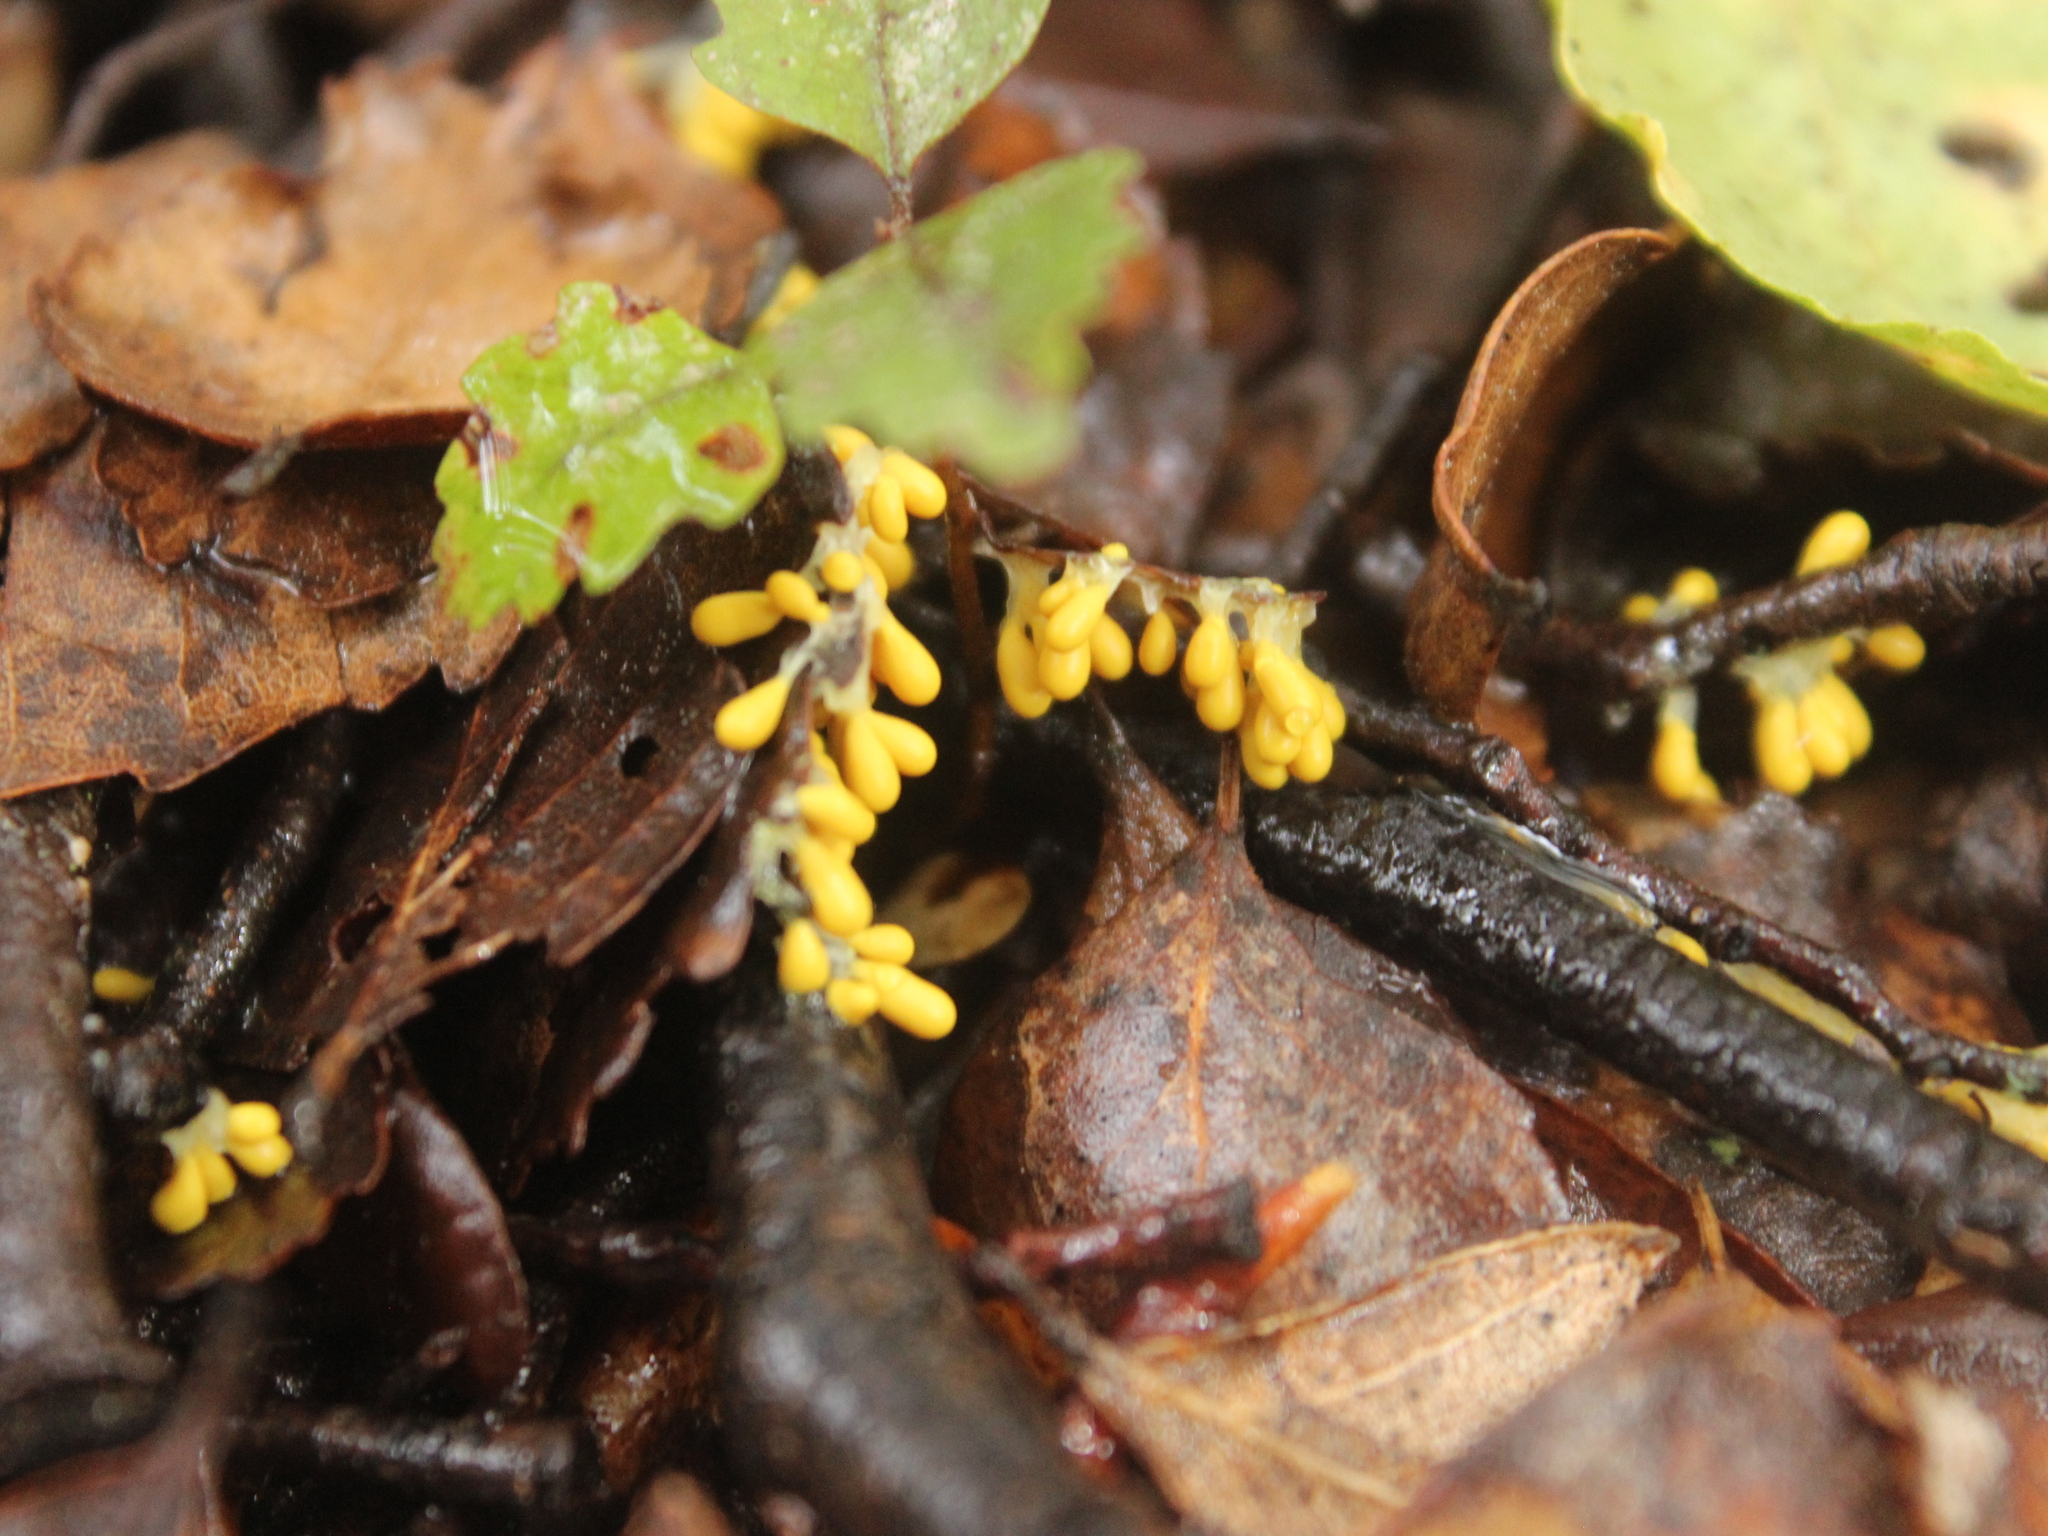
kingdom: Protozoa
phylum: Mycetozoa
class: Myxomycetes
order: Physarales
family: Physaraceae
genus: Leocarpus
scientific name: Leocarpus fragilis
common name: Insect-egg slime
